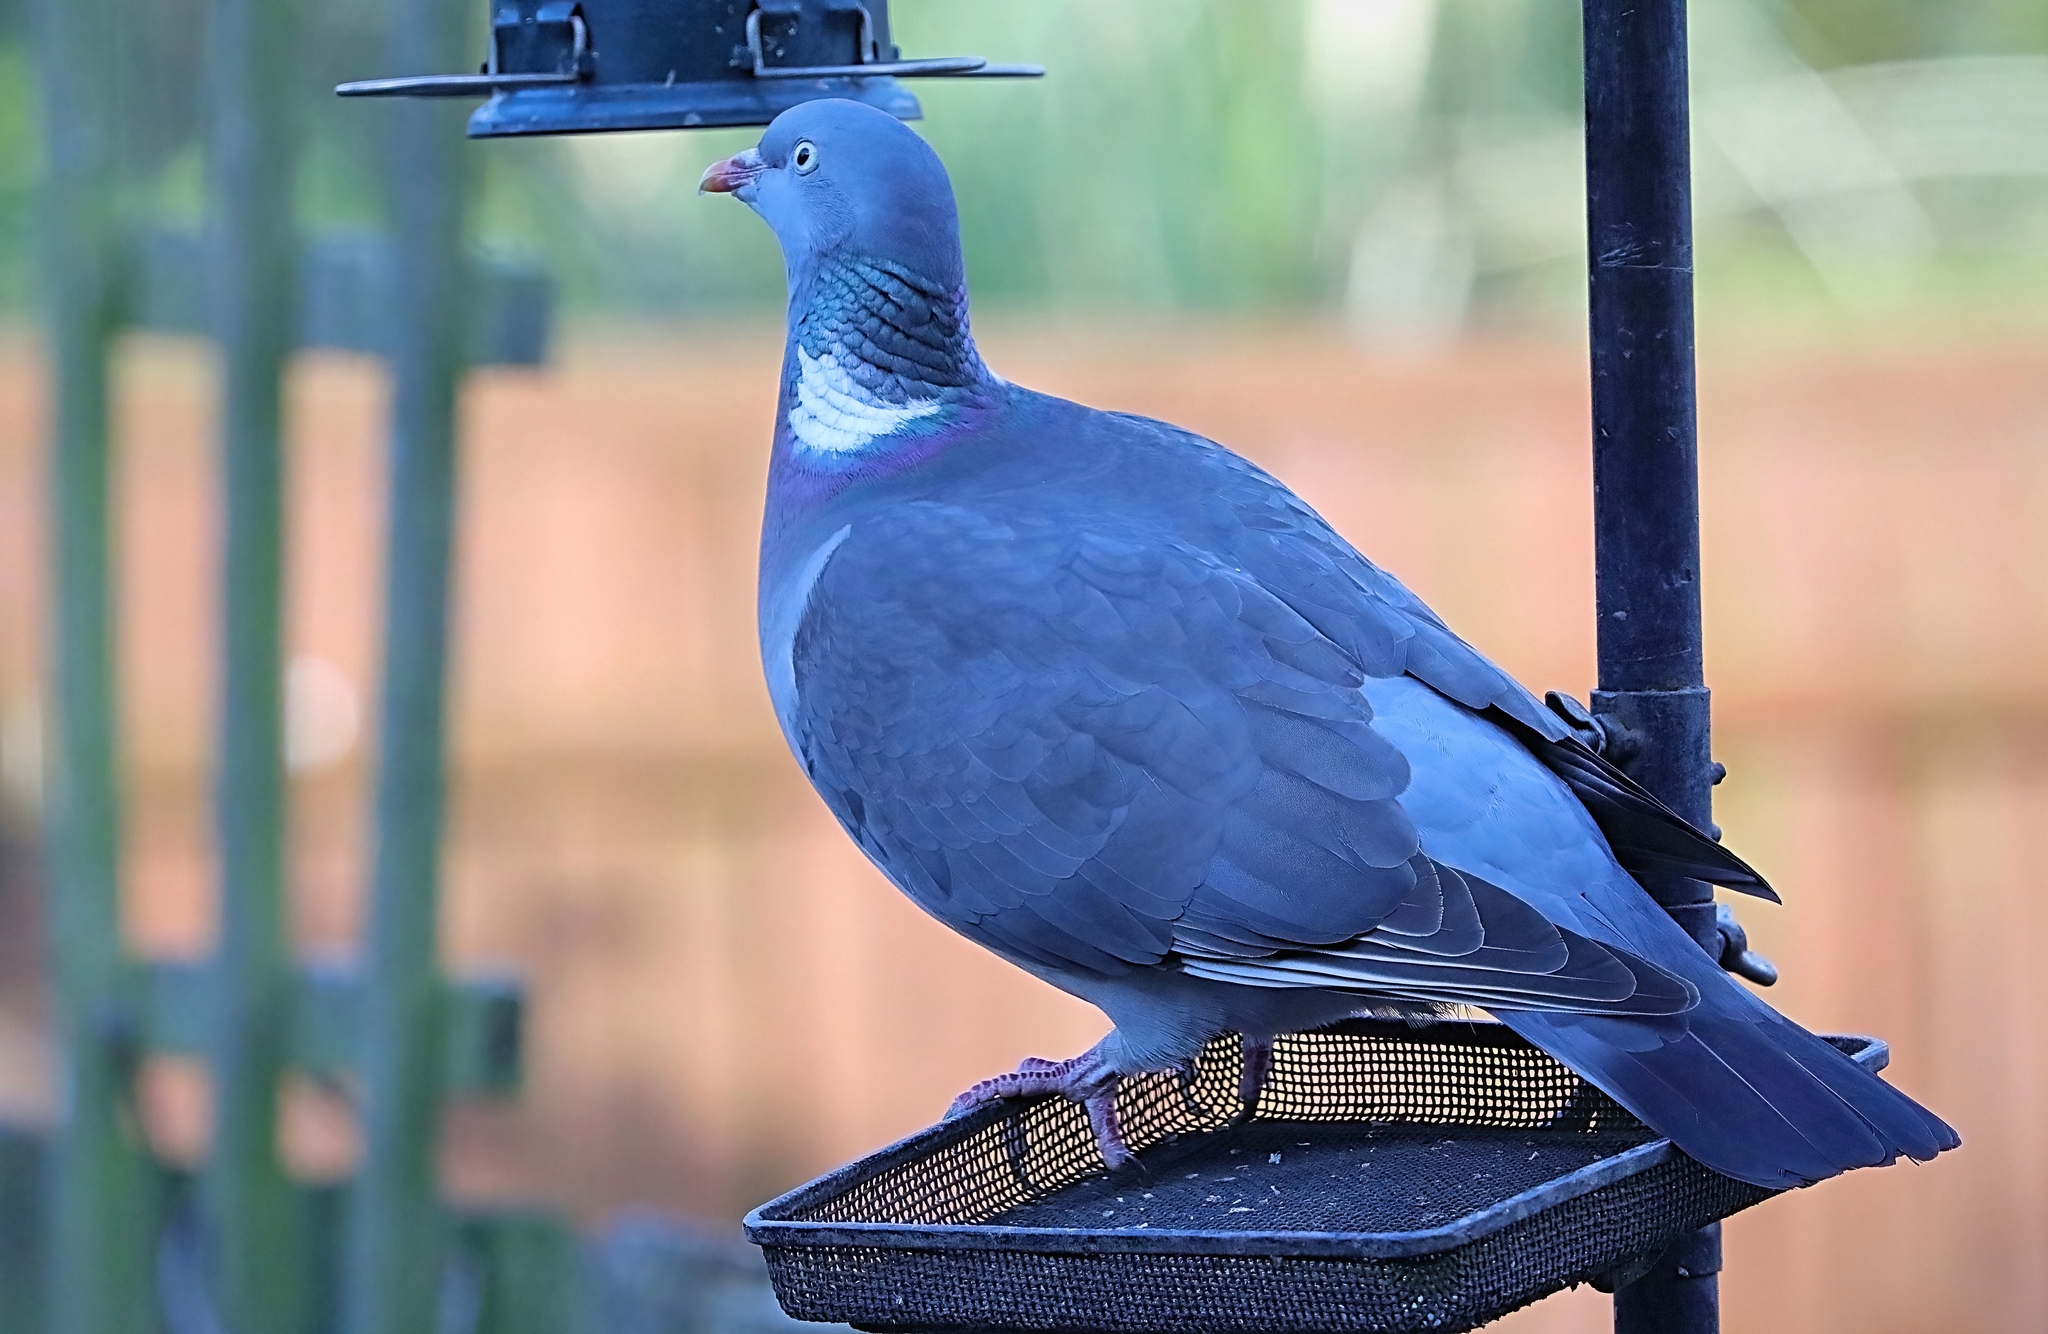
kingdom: Animalia
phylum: Chordata
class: Aves
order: Columbiformes
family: Columbidae
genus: Columba
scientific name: Columba palumbus
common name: Common wood pigeon
